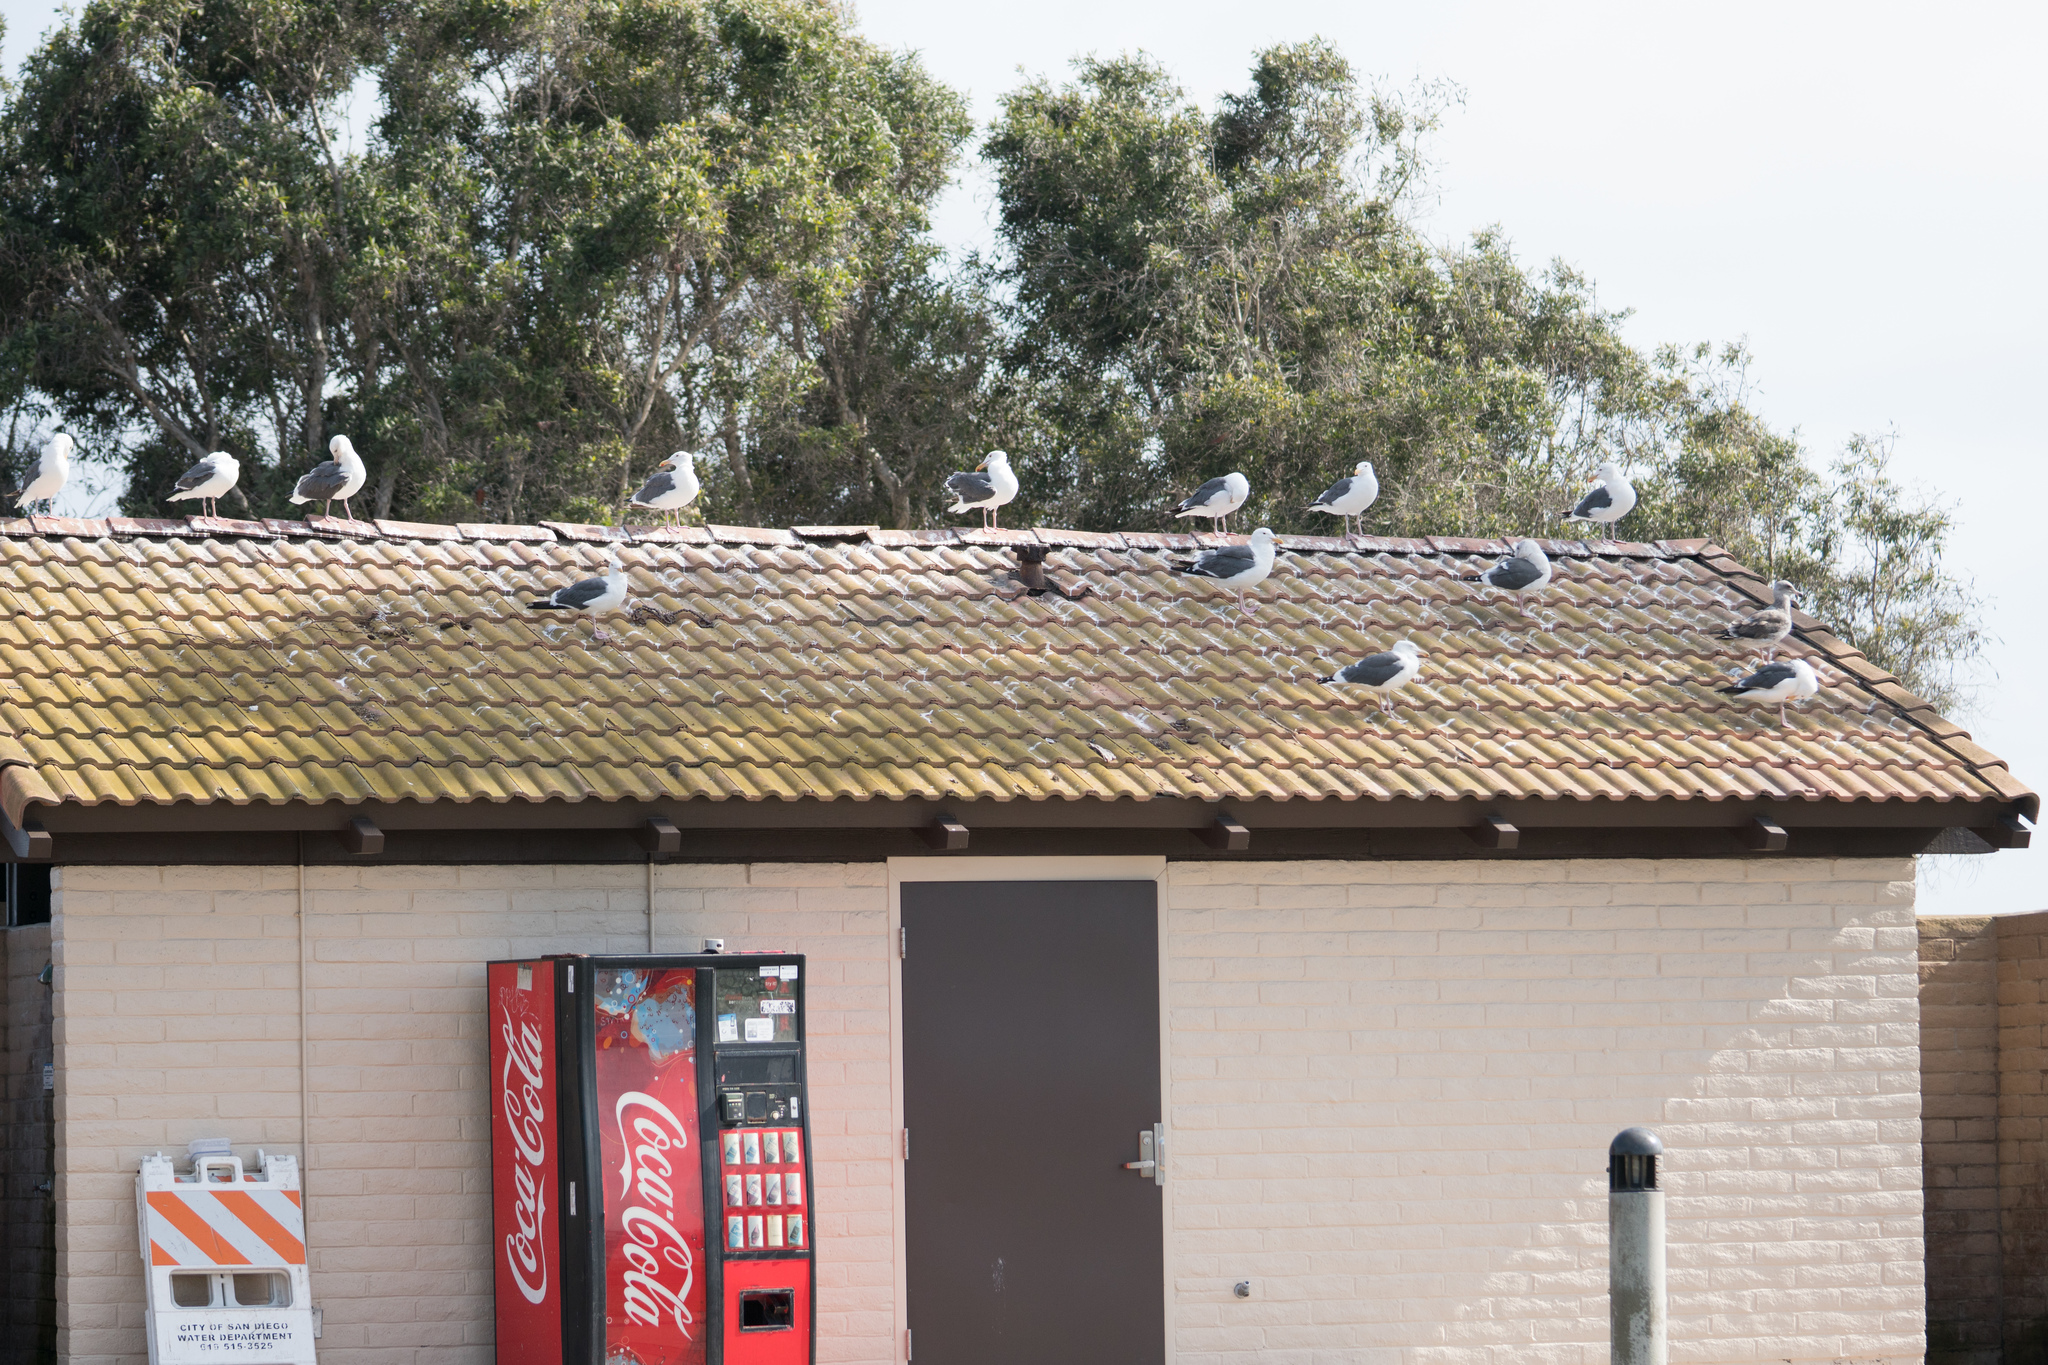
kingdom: Animalia
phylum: Chordata
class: Aves
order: Charadriiformes
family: Laridae
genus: Larus
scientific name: Larus occidentalis
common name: Western gull
